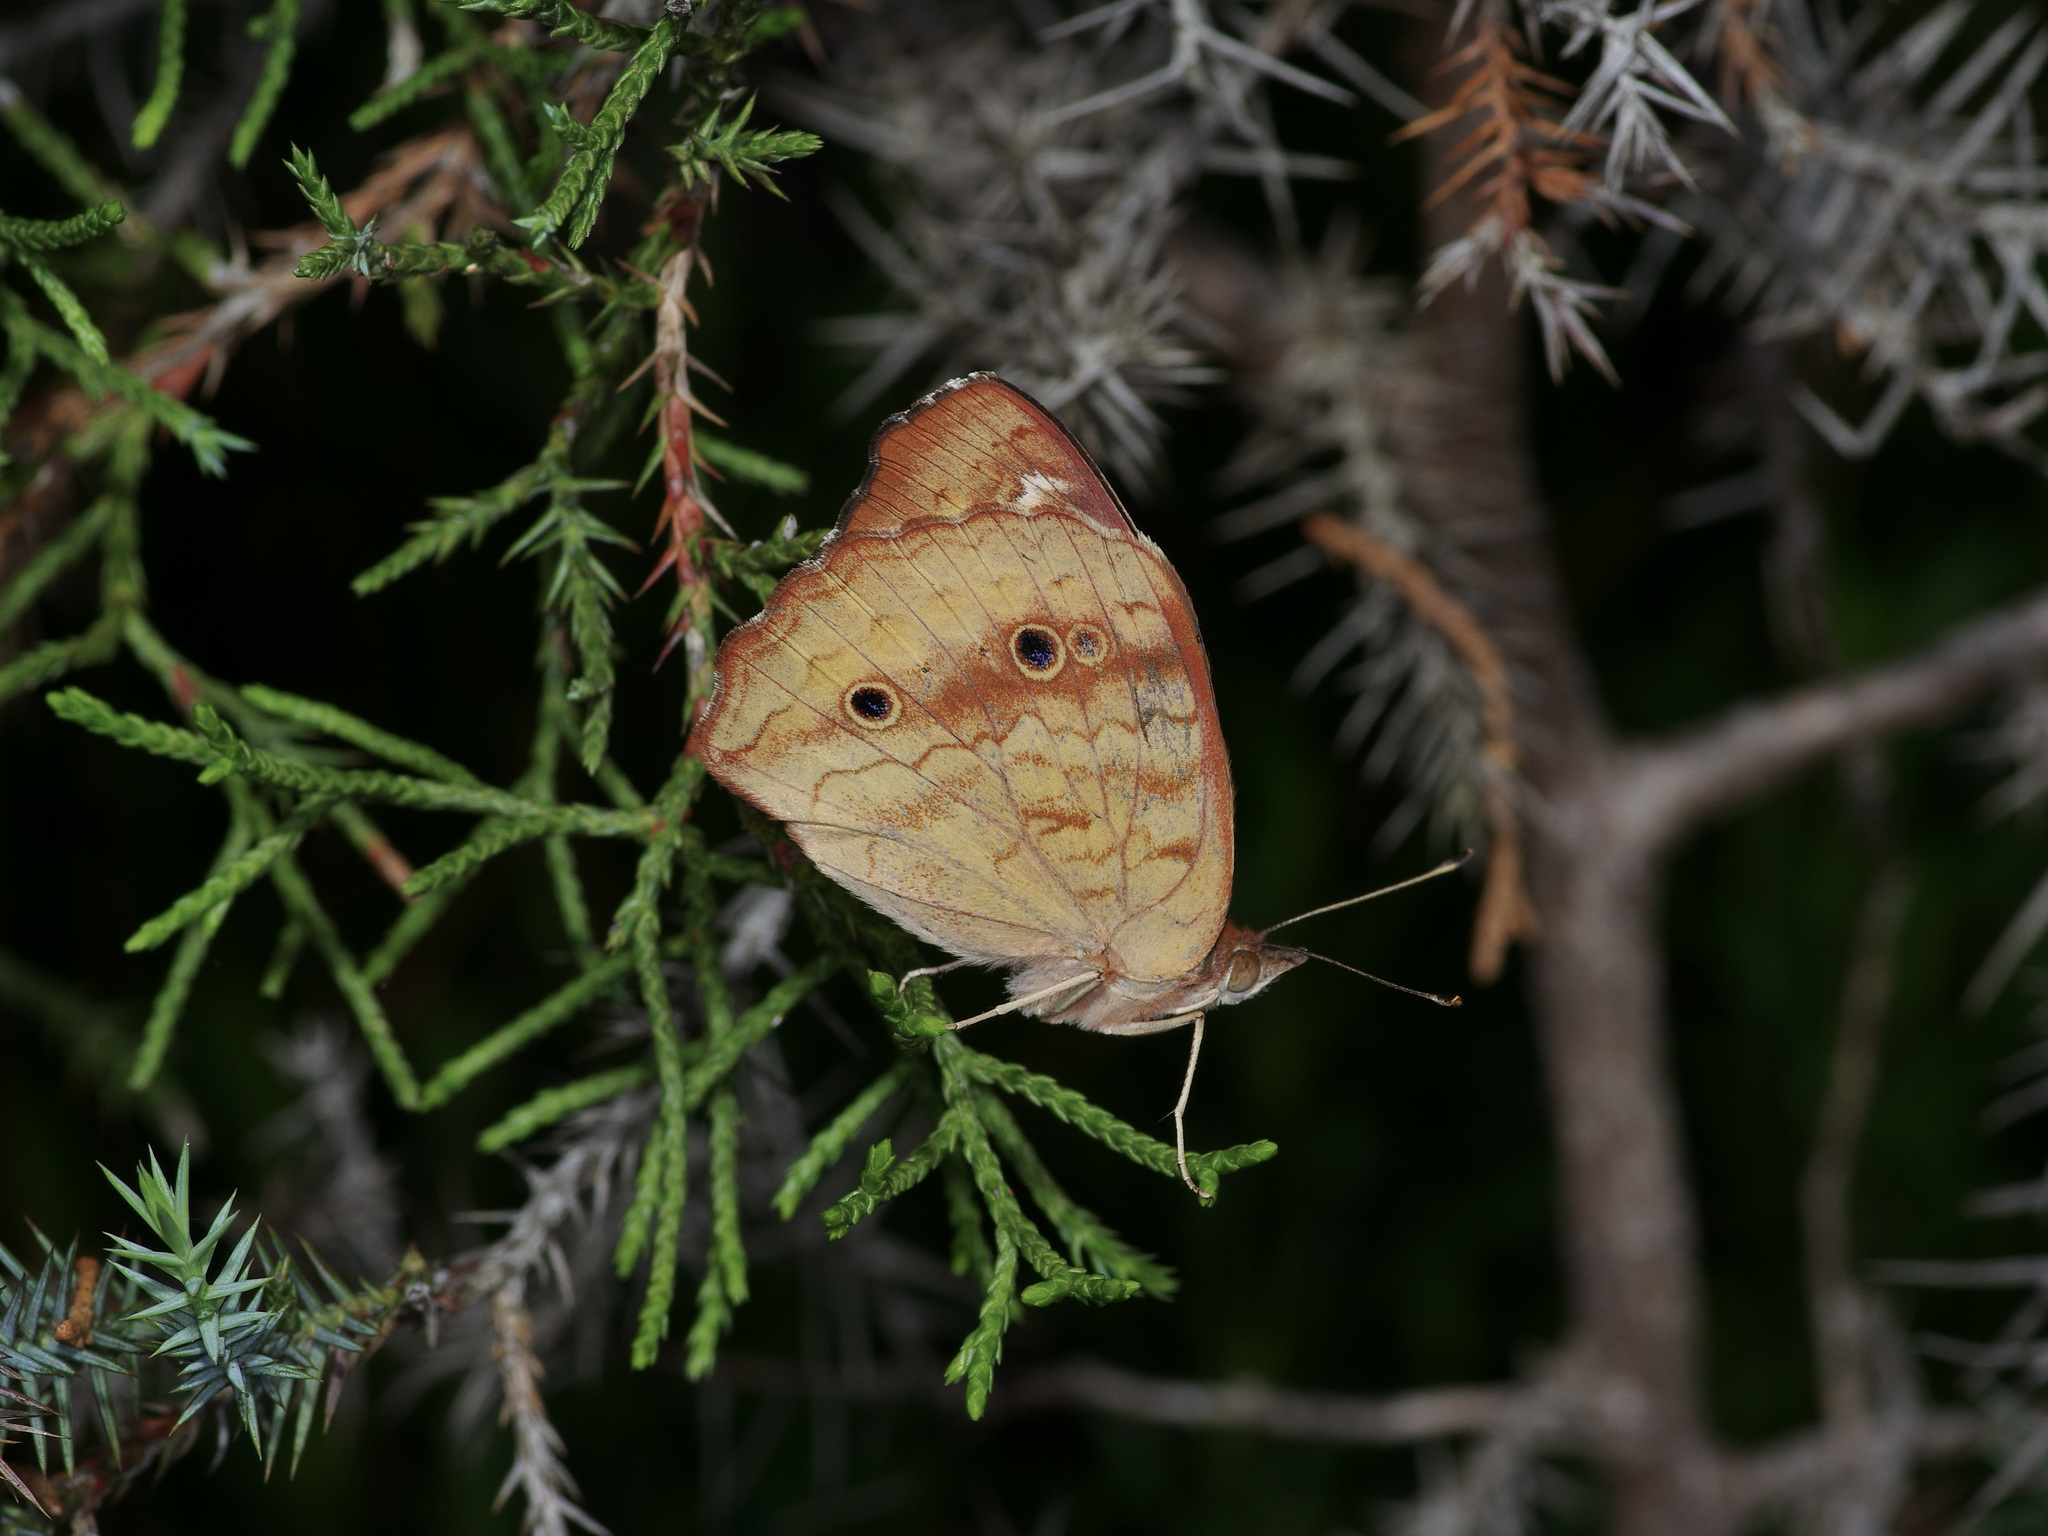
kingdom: Animalia
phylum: Arthropoda
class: Insecta
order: Lepidoptera
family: Nymphalidae
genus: Junonia
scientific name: Junonia coenia
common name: Common buckeye
